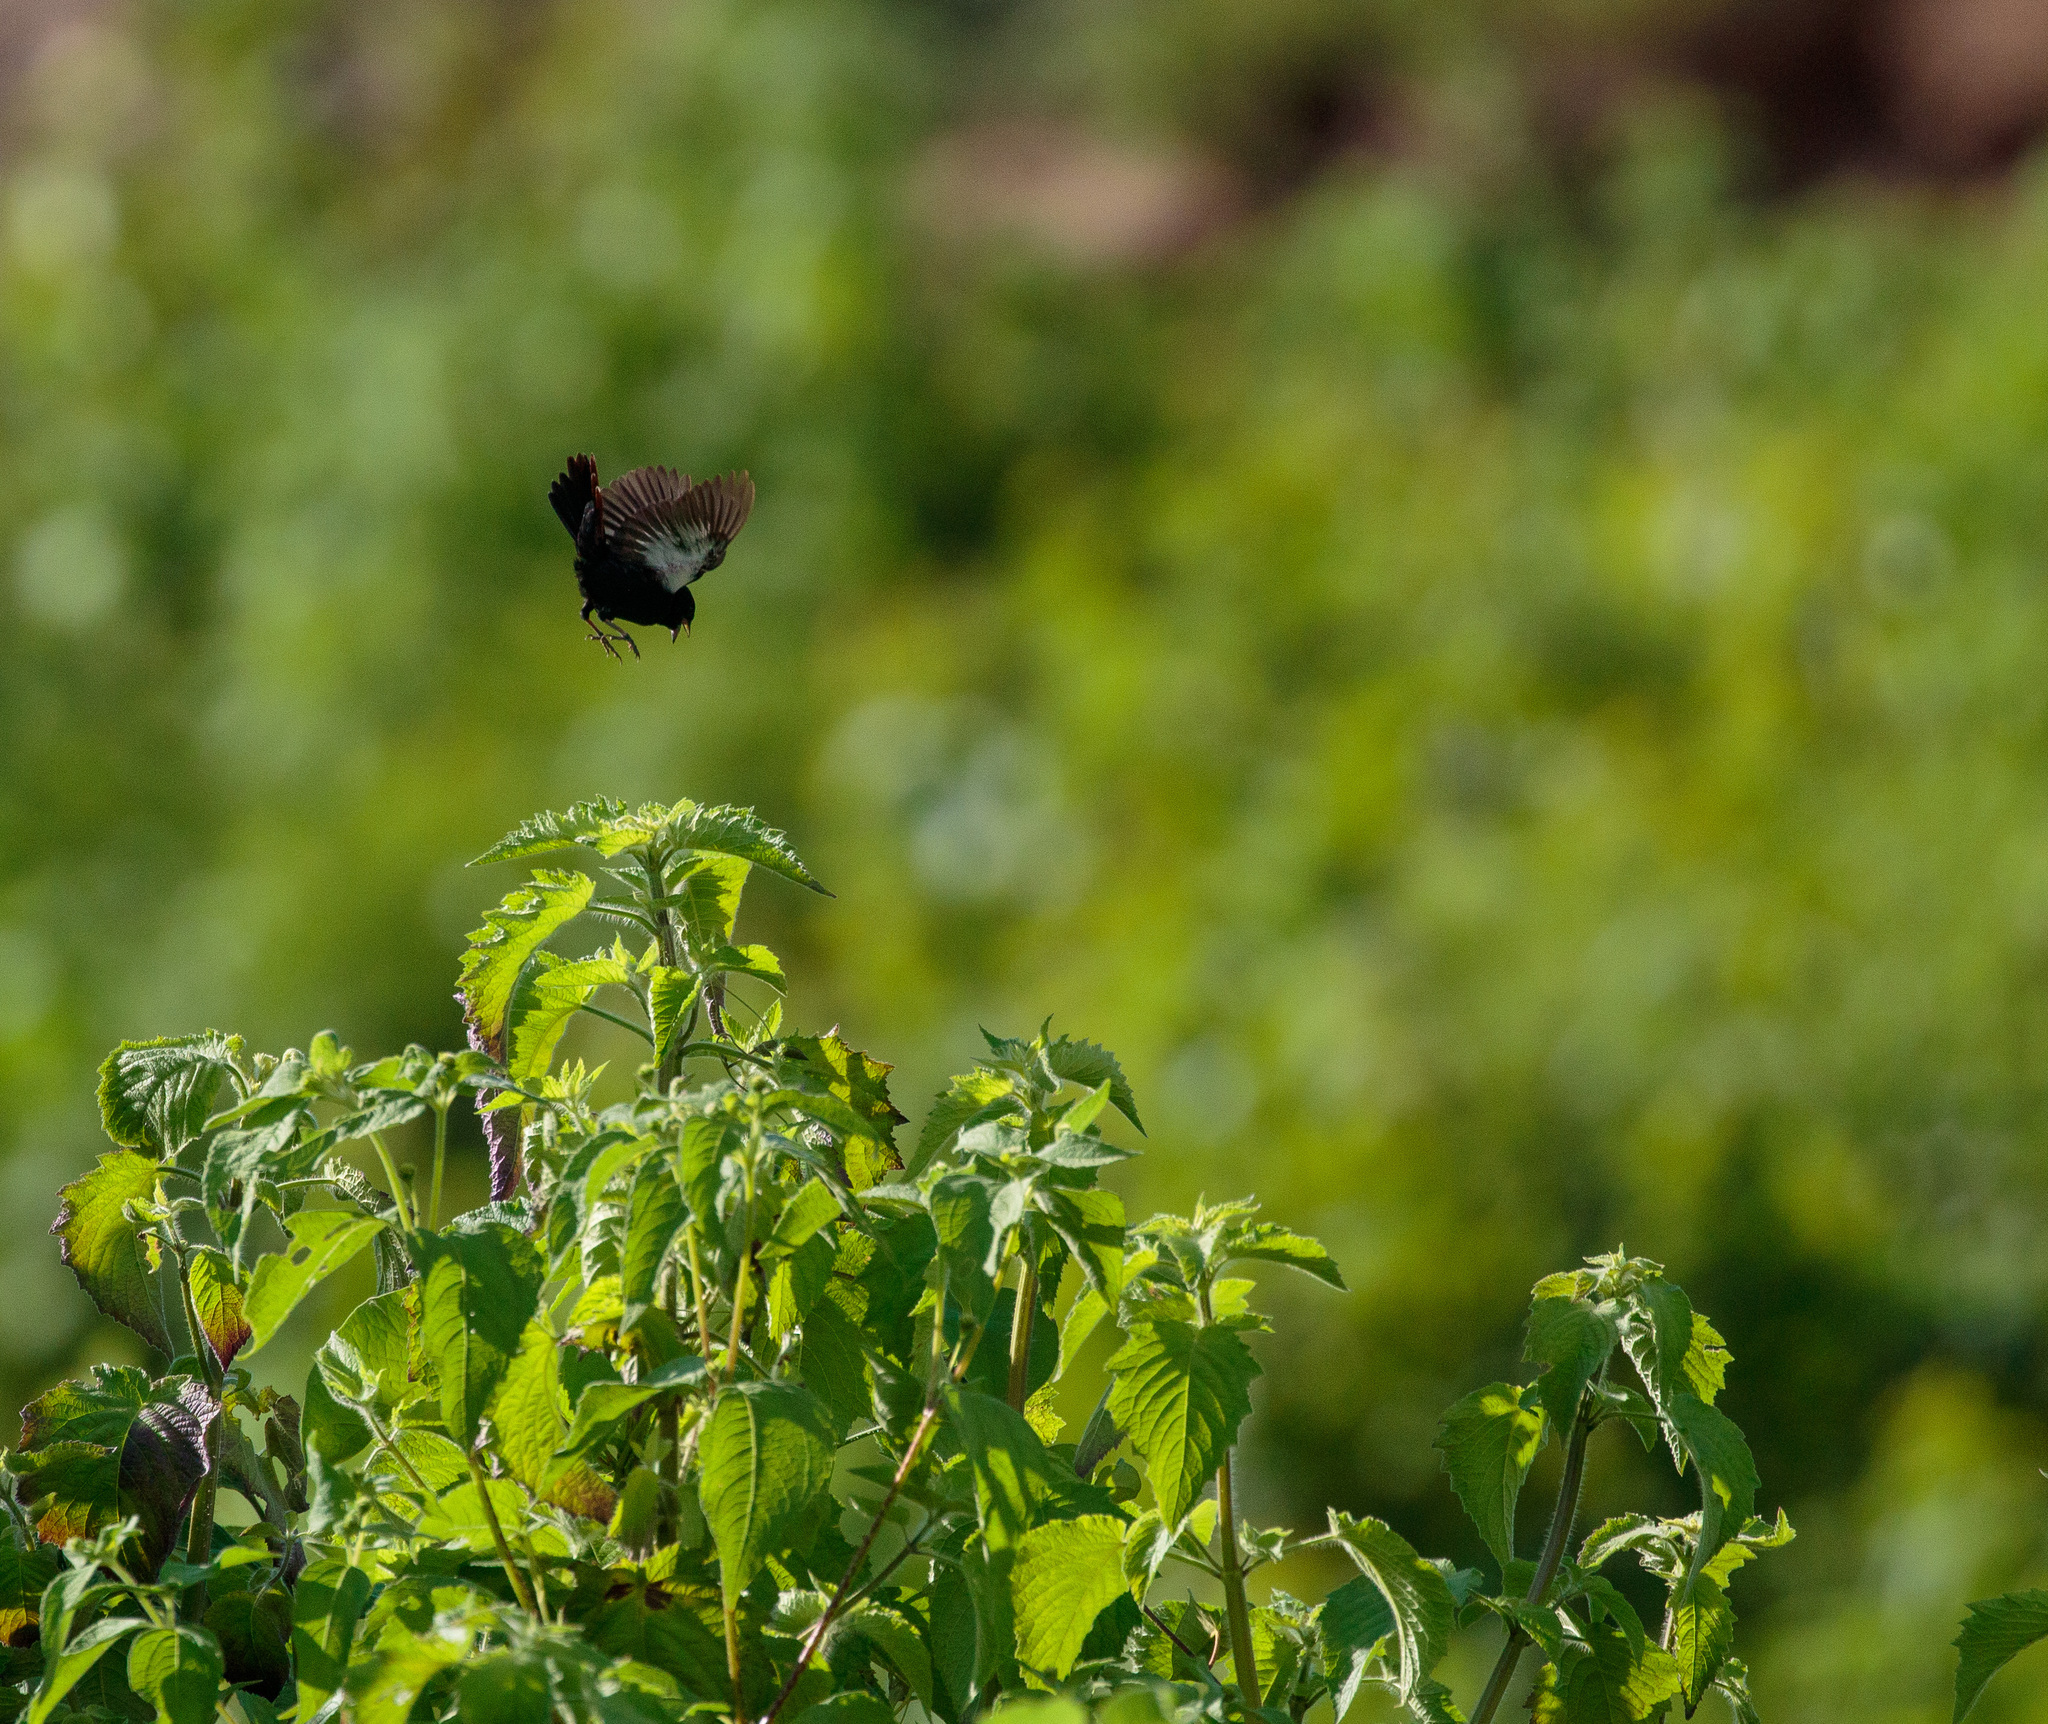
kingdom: Animalia
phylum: Chordata
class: Aves
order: Passeriformes
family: Thraupidae
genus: Volatinia
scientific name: Volatinia jacarina
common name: Blue-black grassquit
